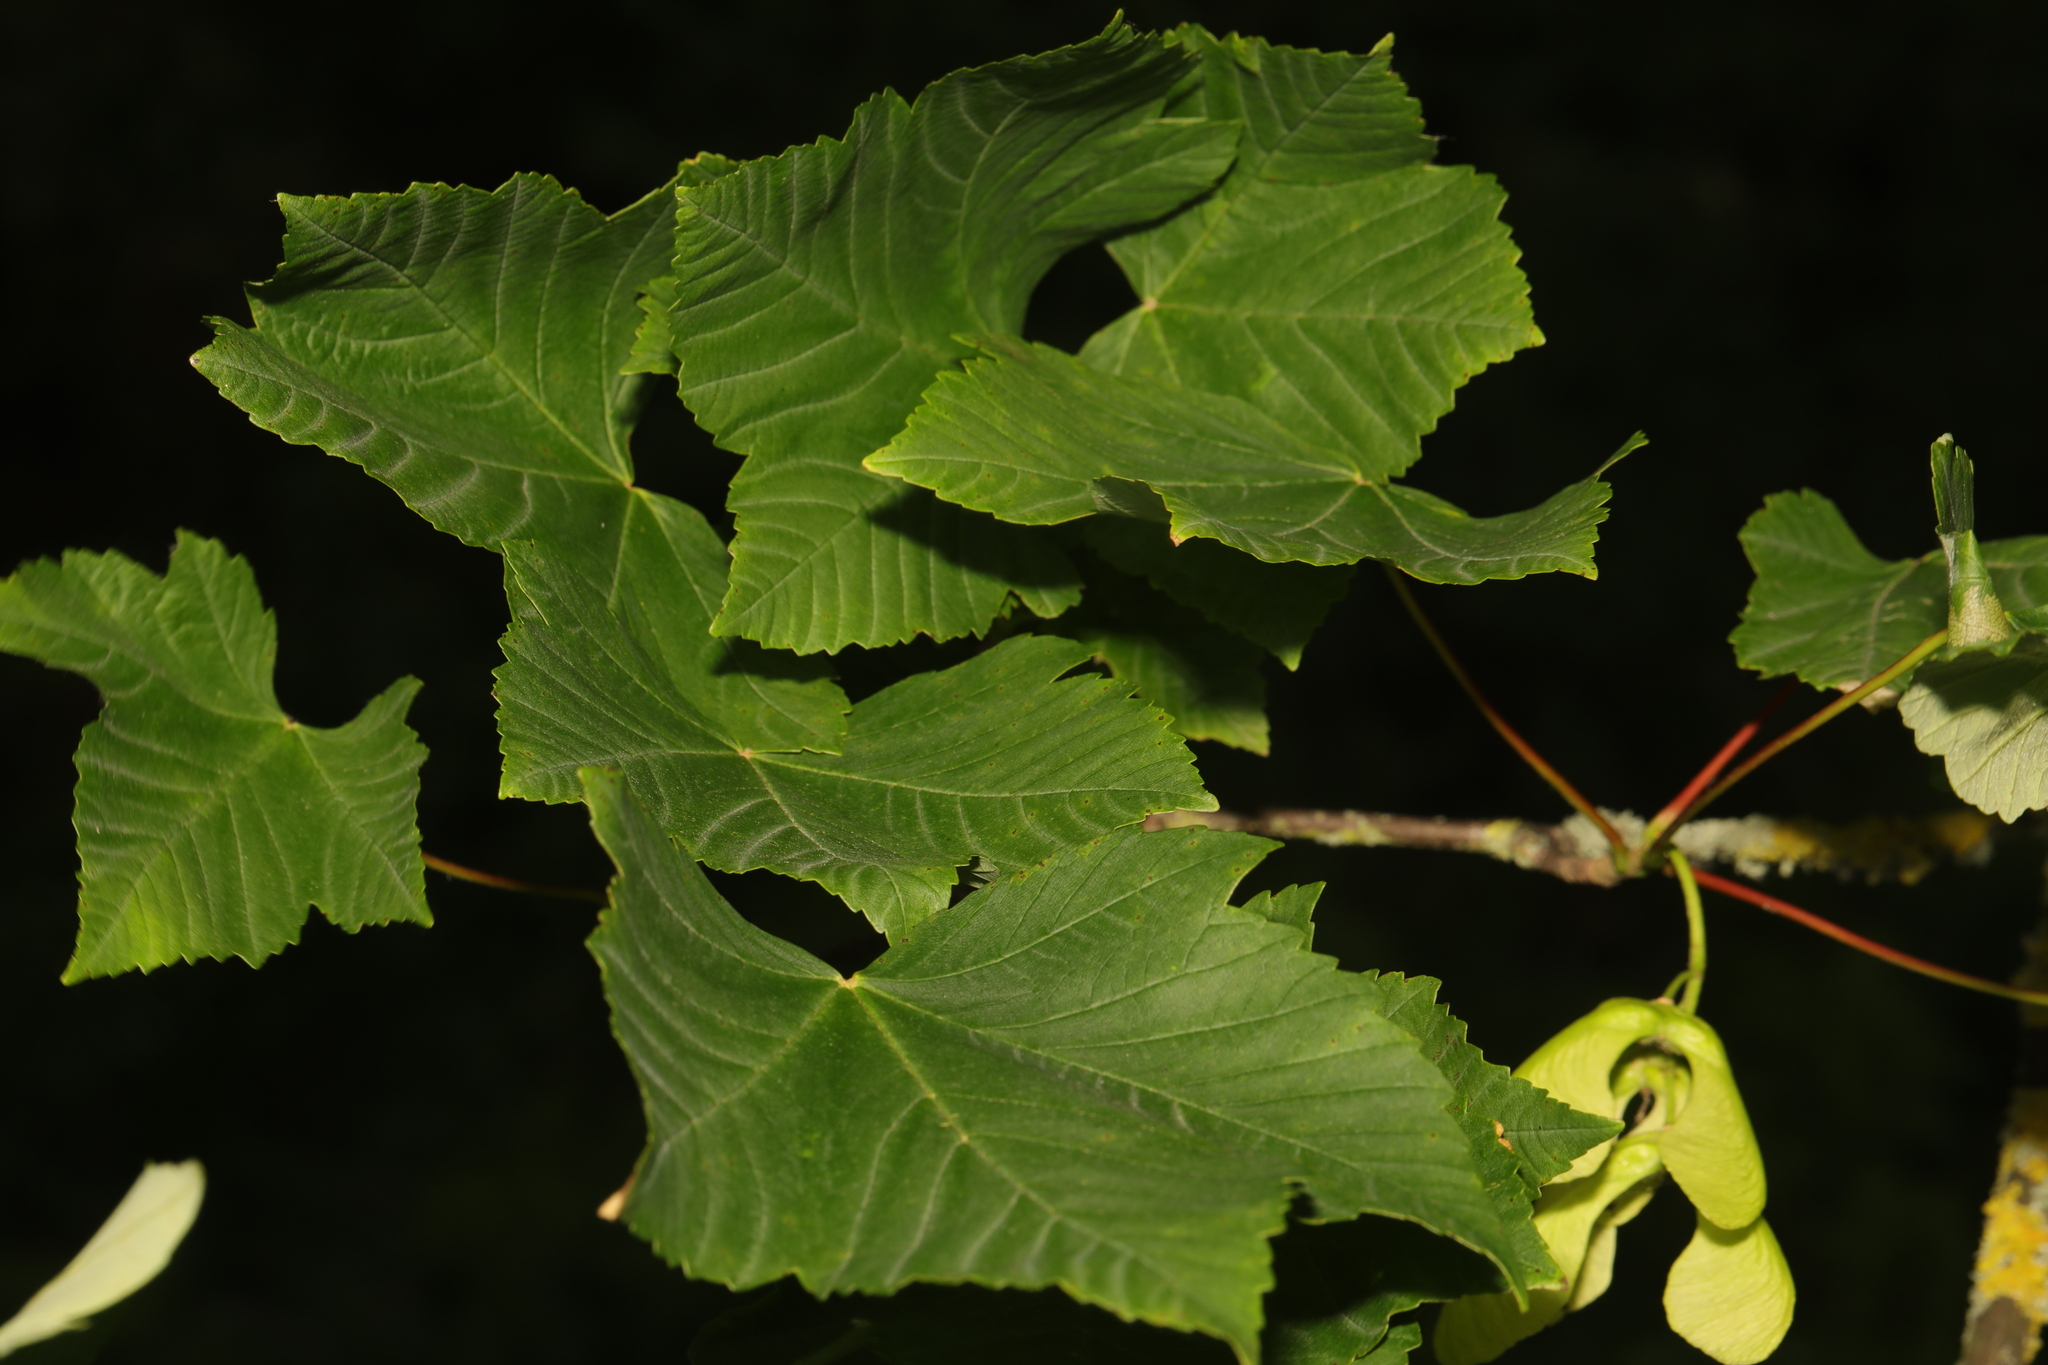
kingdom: Plantae
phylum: Tracheophyta
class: Magnoliopsida
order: Sapindales
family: Sapindaceae
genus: Acer
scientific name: Acer pseudoplatanus
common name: Sycamore
